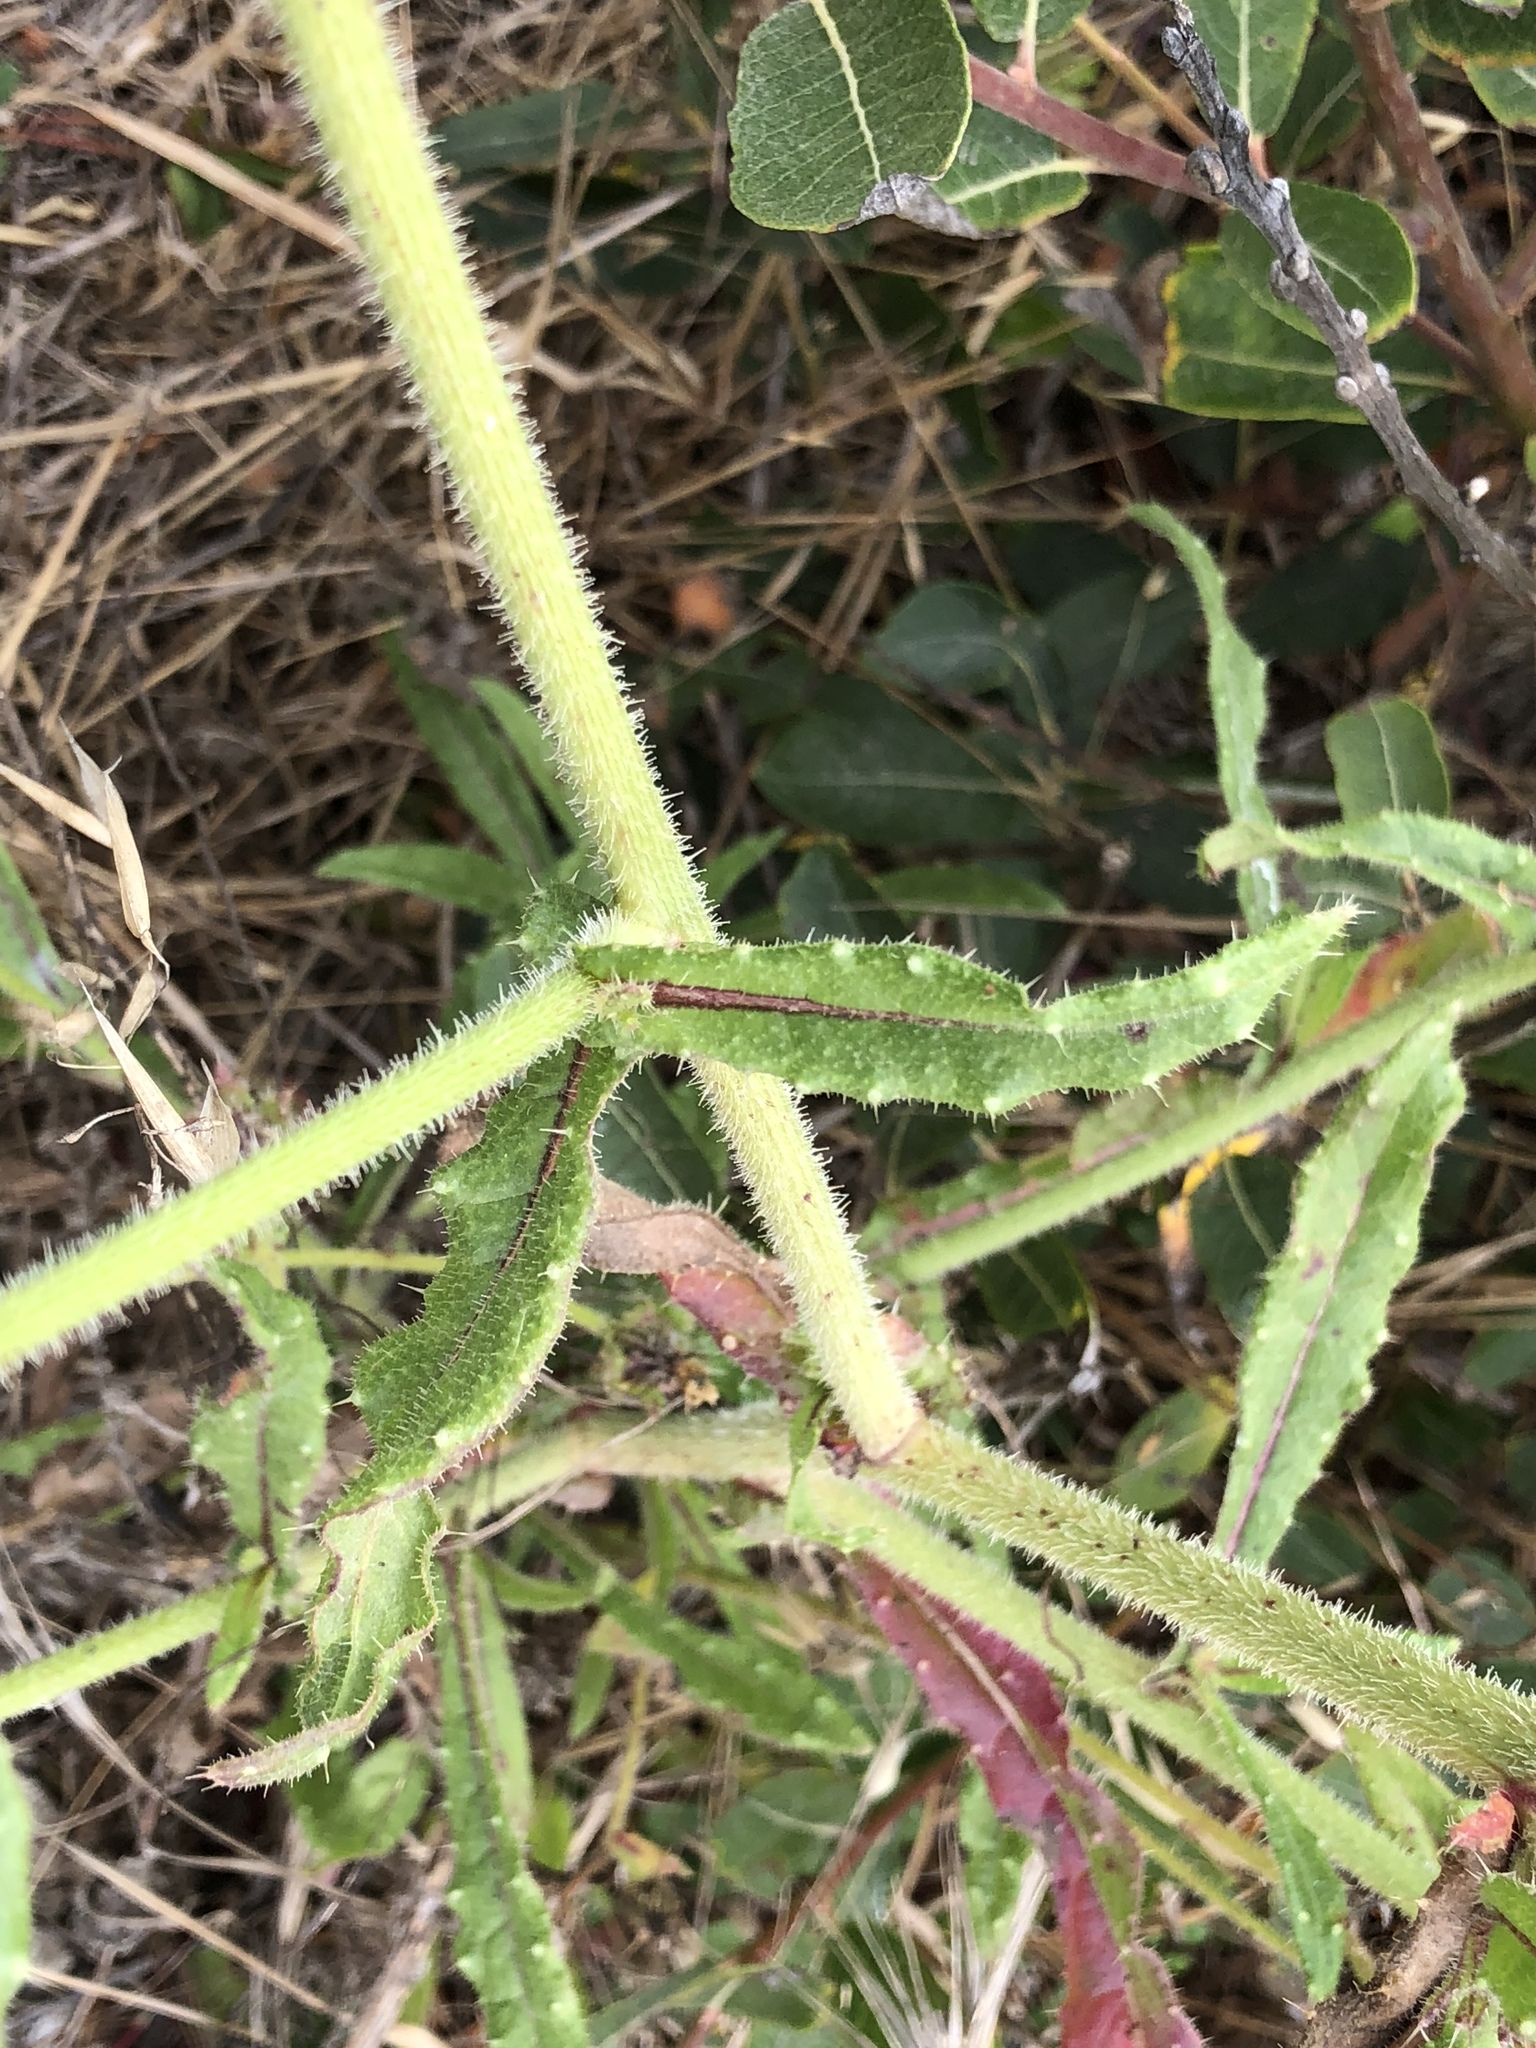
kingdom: Plantae
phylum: Tracheophyta
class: Magnoliopsida
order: Asterales
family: Asteraceae
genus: Helminthotheca
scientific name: Helminthotheca echioides
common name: Ox-tongue
